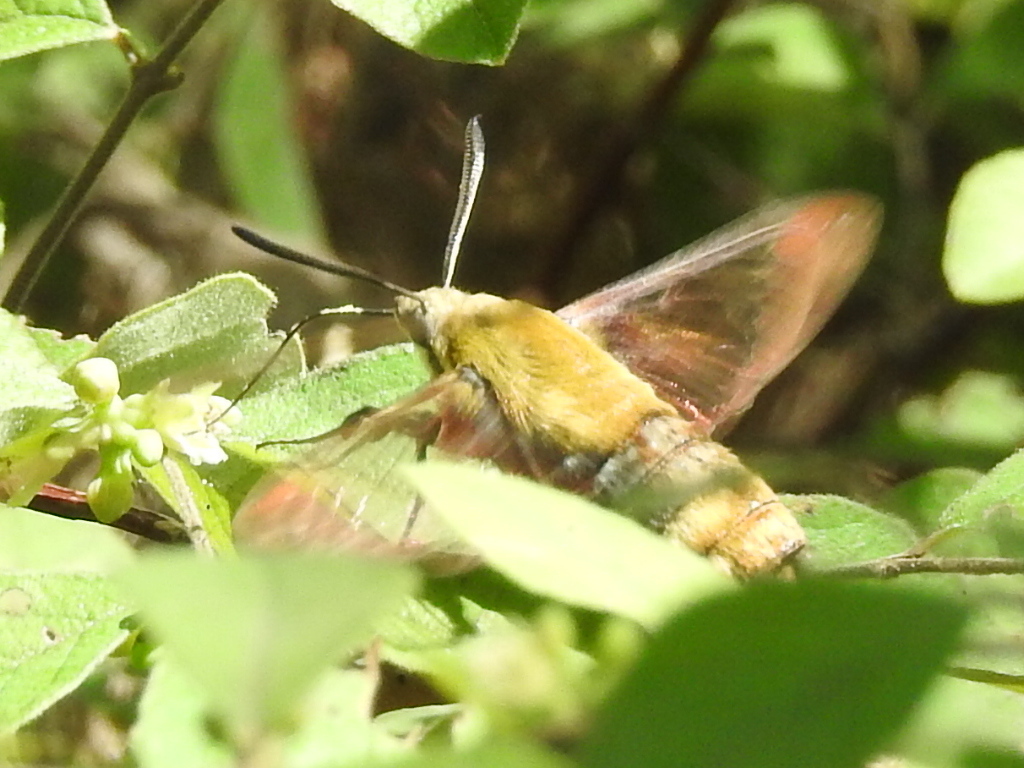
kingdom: Animalia
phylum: Arthropoda
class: Insecta
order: Lepidoptera
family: Sphingidae
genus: Hemaris
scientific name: Hemaris diffinis
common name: Bumblebee moth
